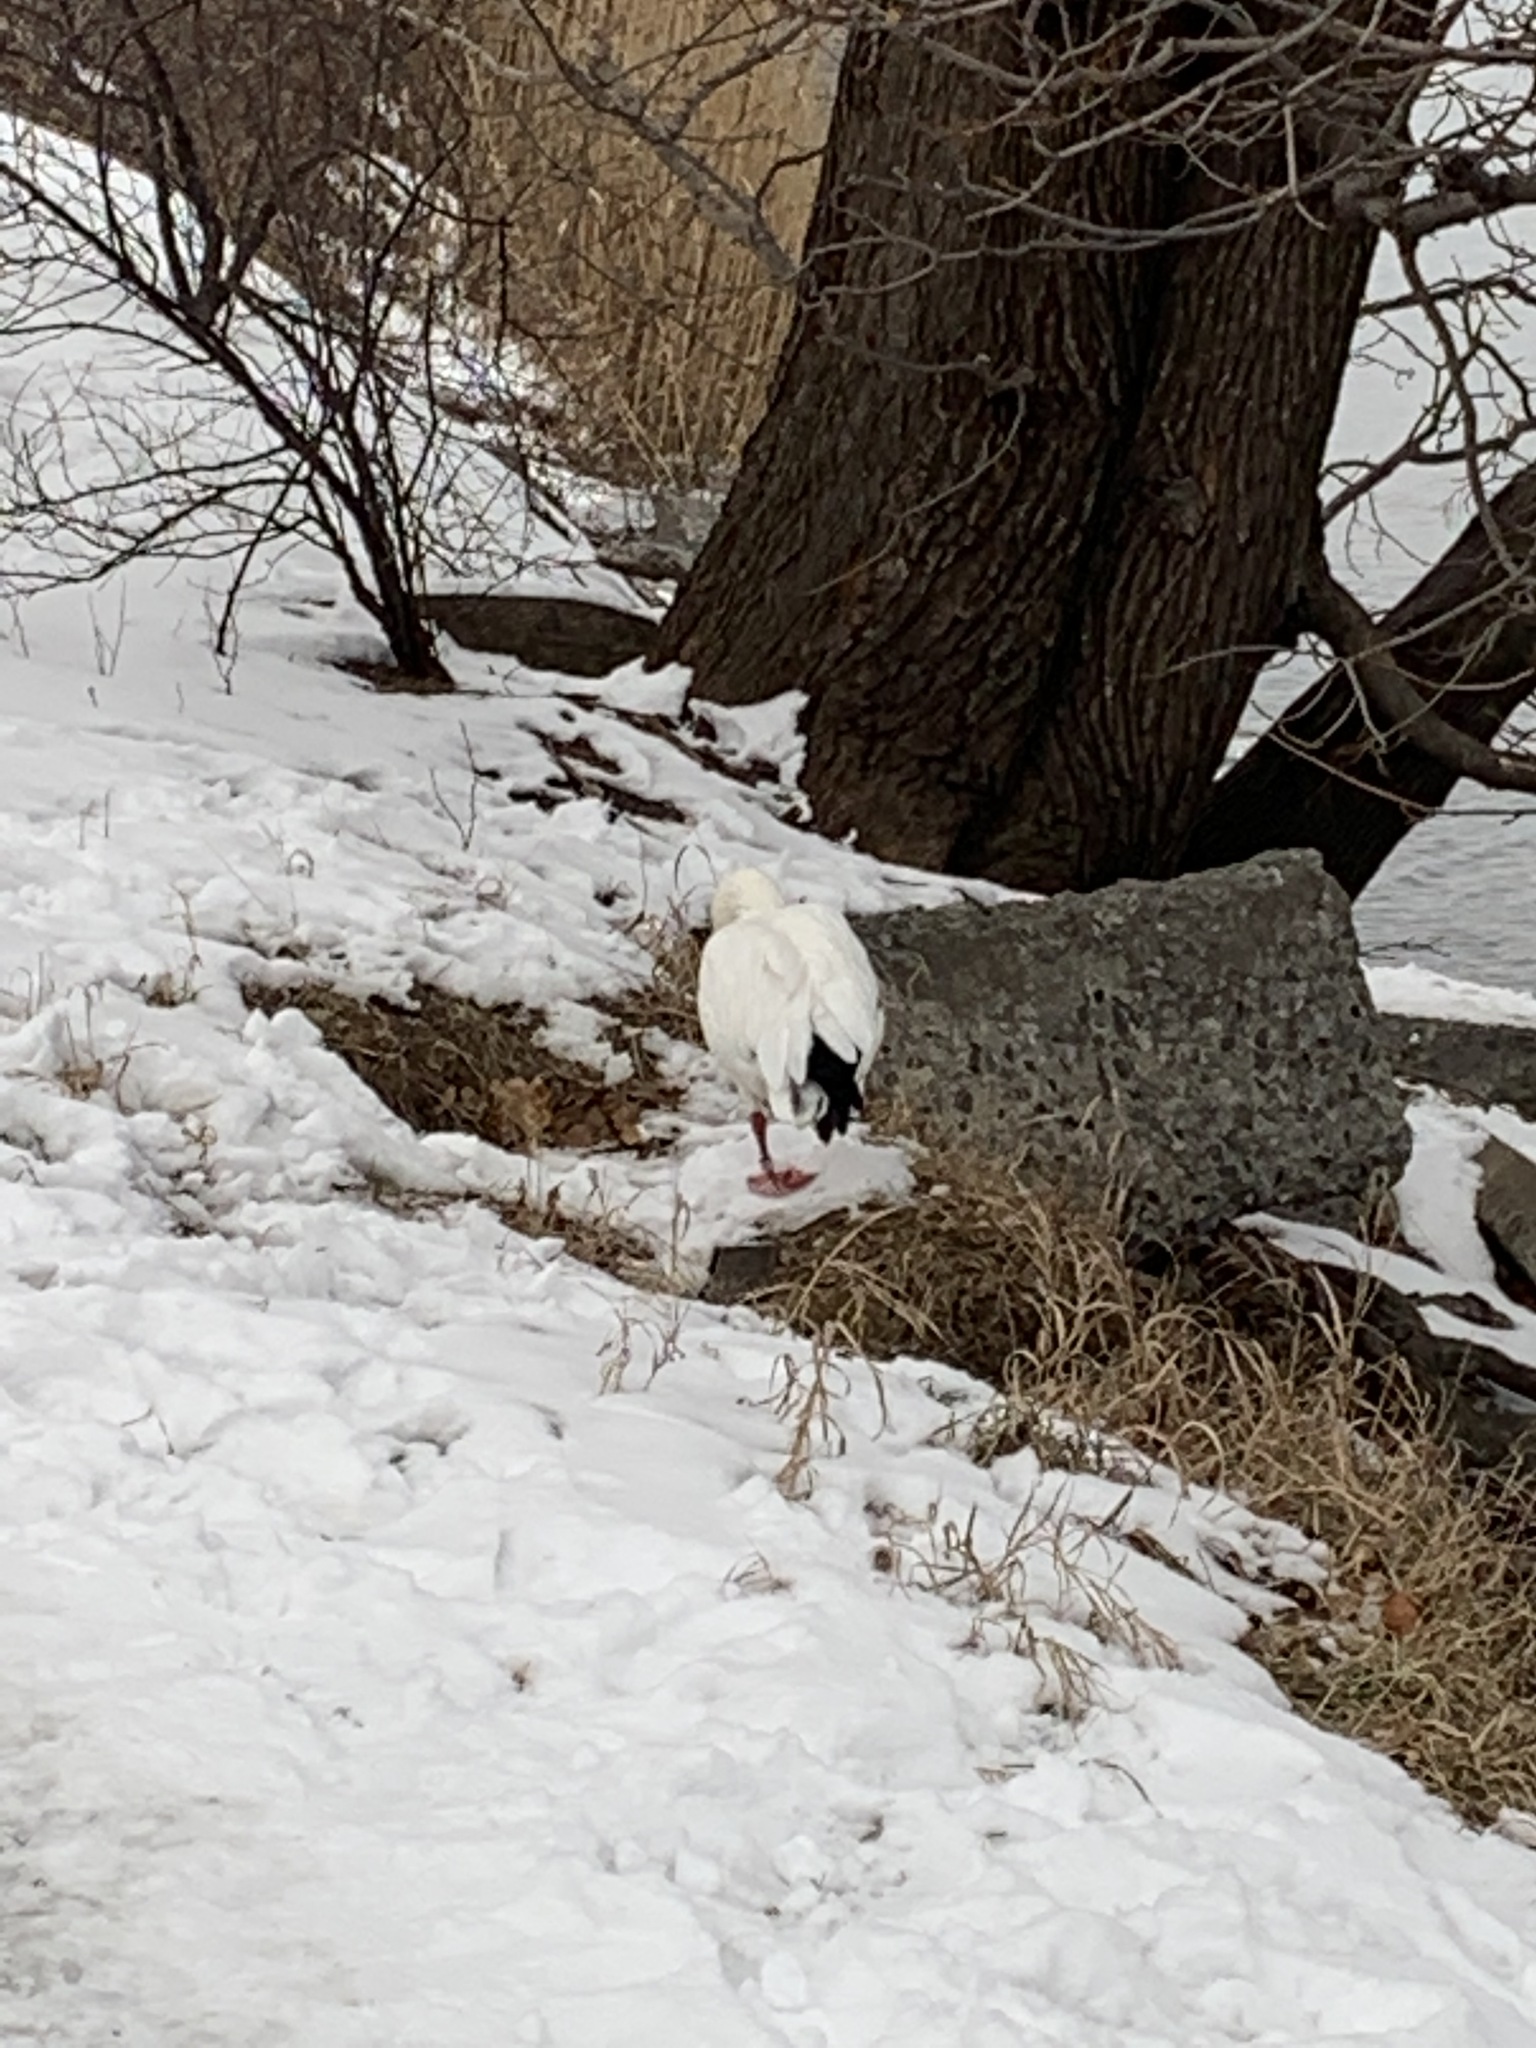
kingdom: Animalia
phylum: Chordata
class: Aves
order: Anseriformes
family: Anatidae
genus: Anser
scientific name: Anser caerulescens
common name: Snow goose
